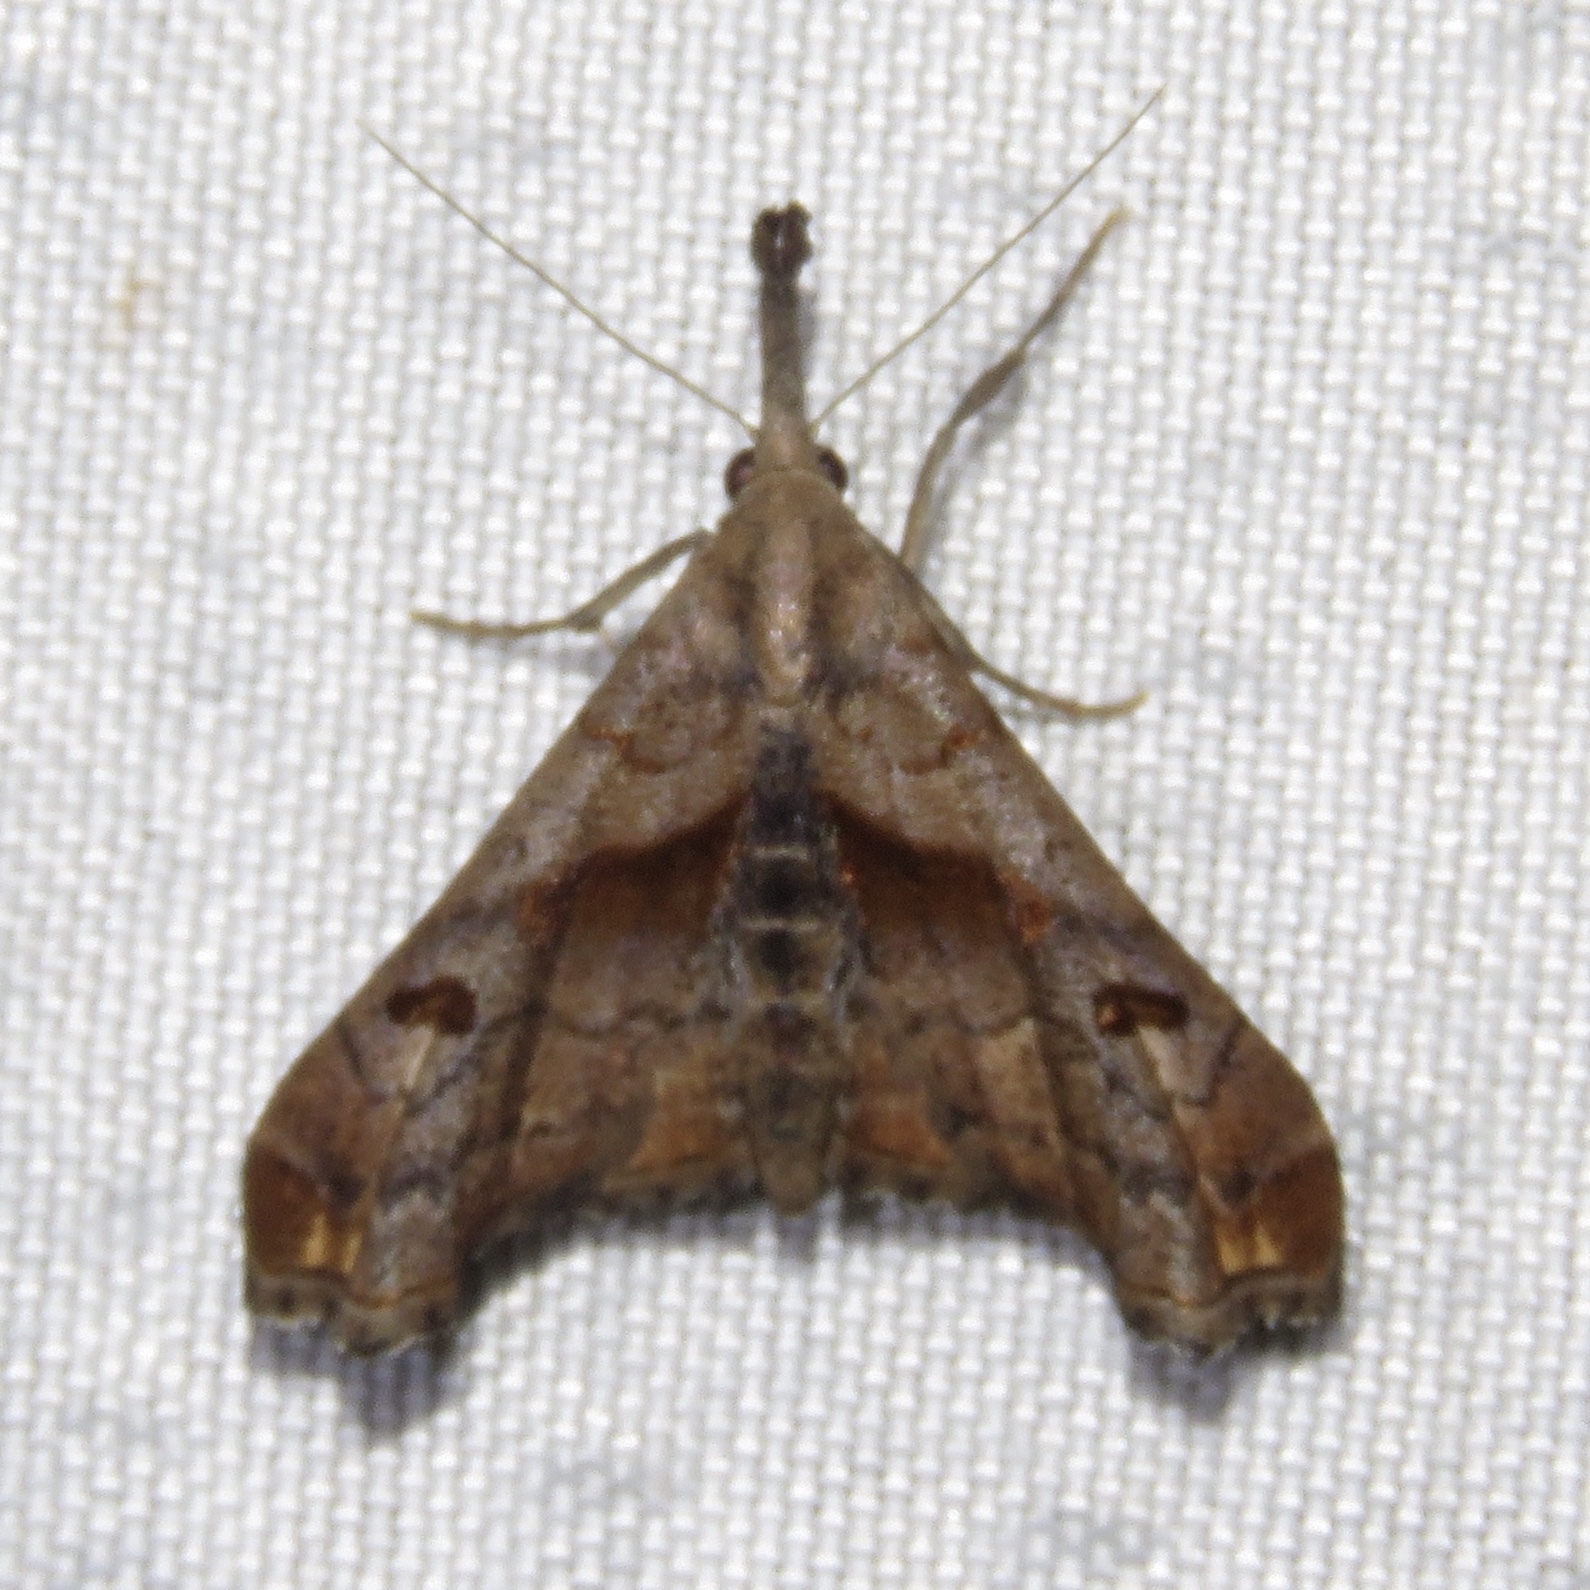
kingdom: Animalia
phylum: Arthropoda
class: Insecta
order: Lepidoptera
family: Erebidae
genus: Palthis
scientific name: Palthis angulalis
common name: Dark-spotted palthis moth
